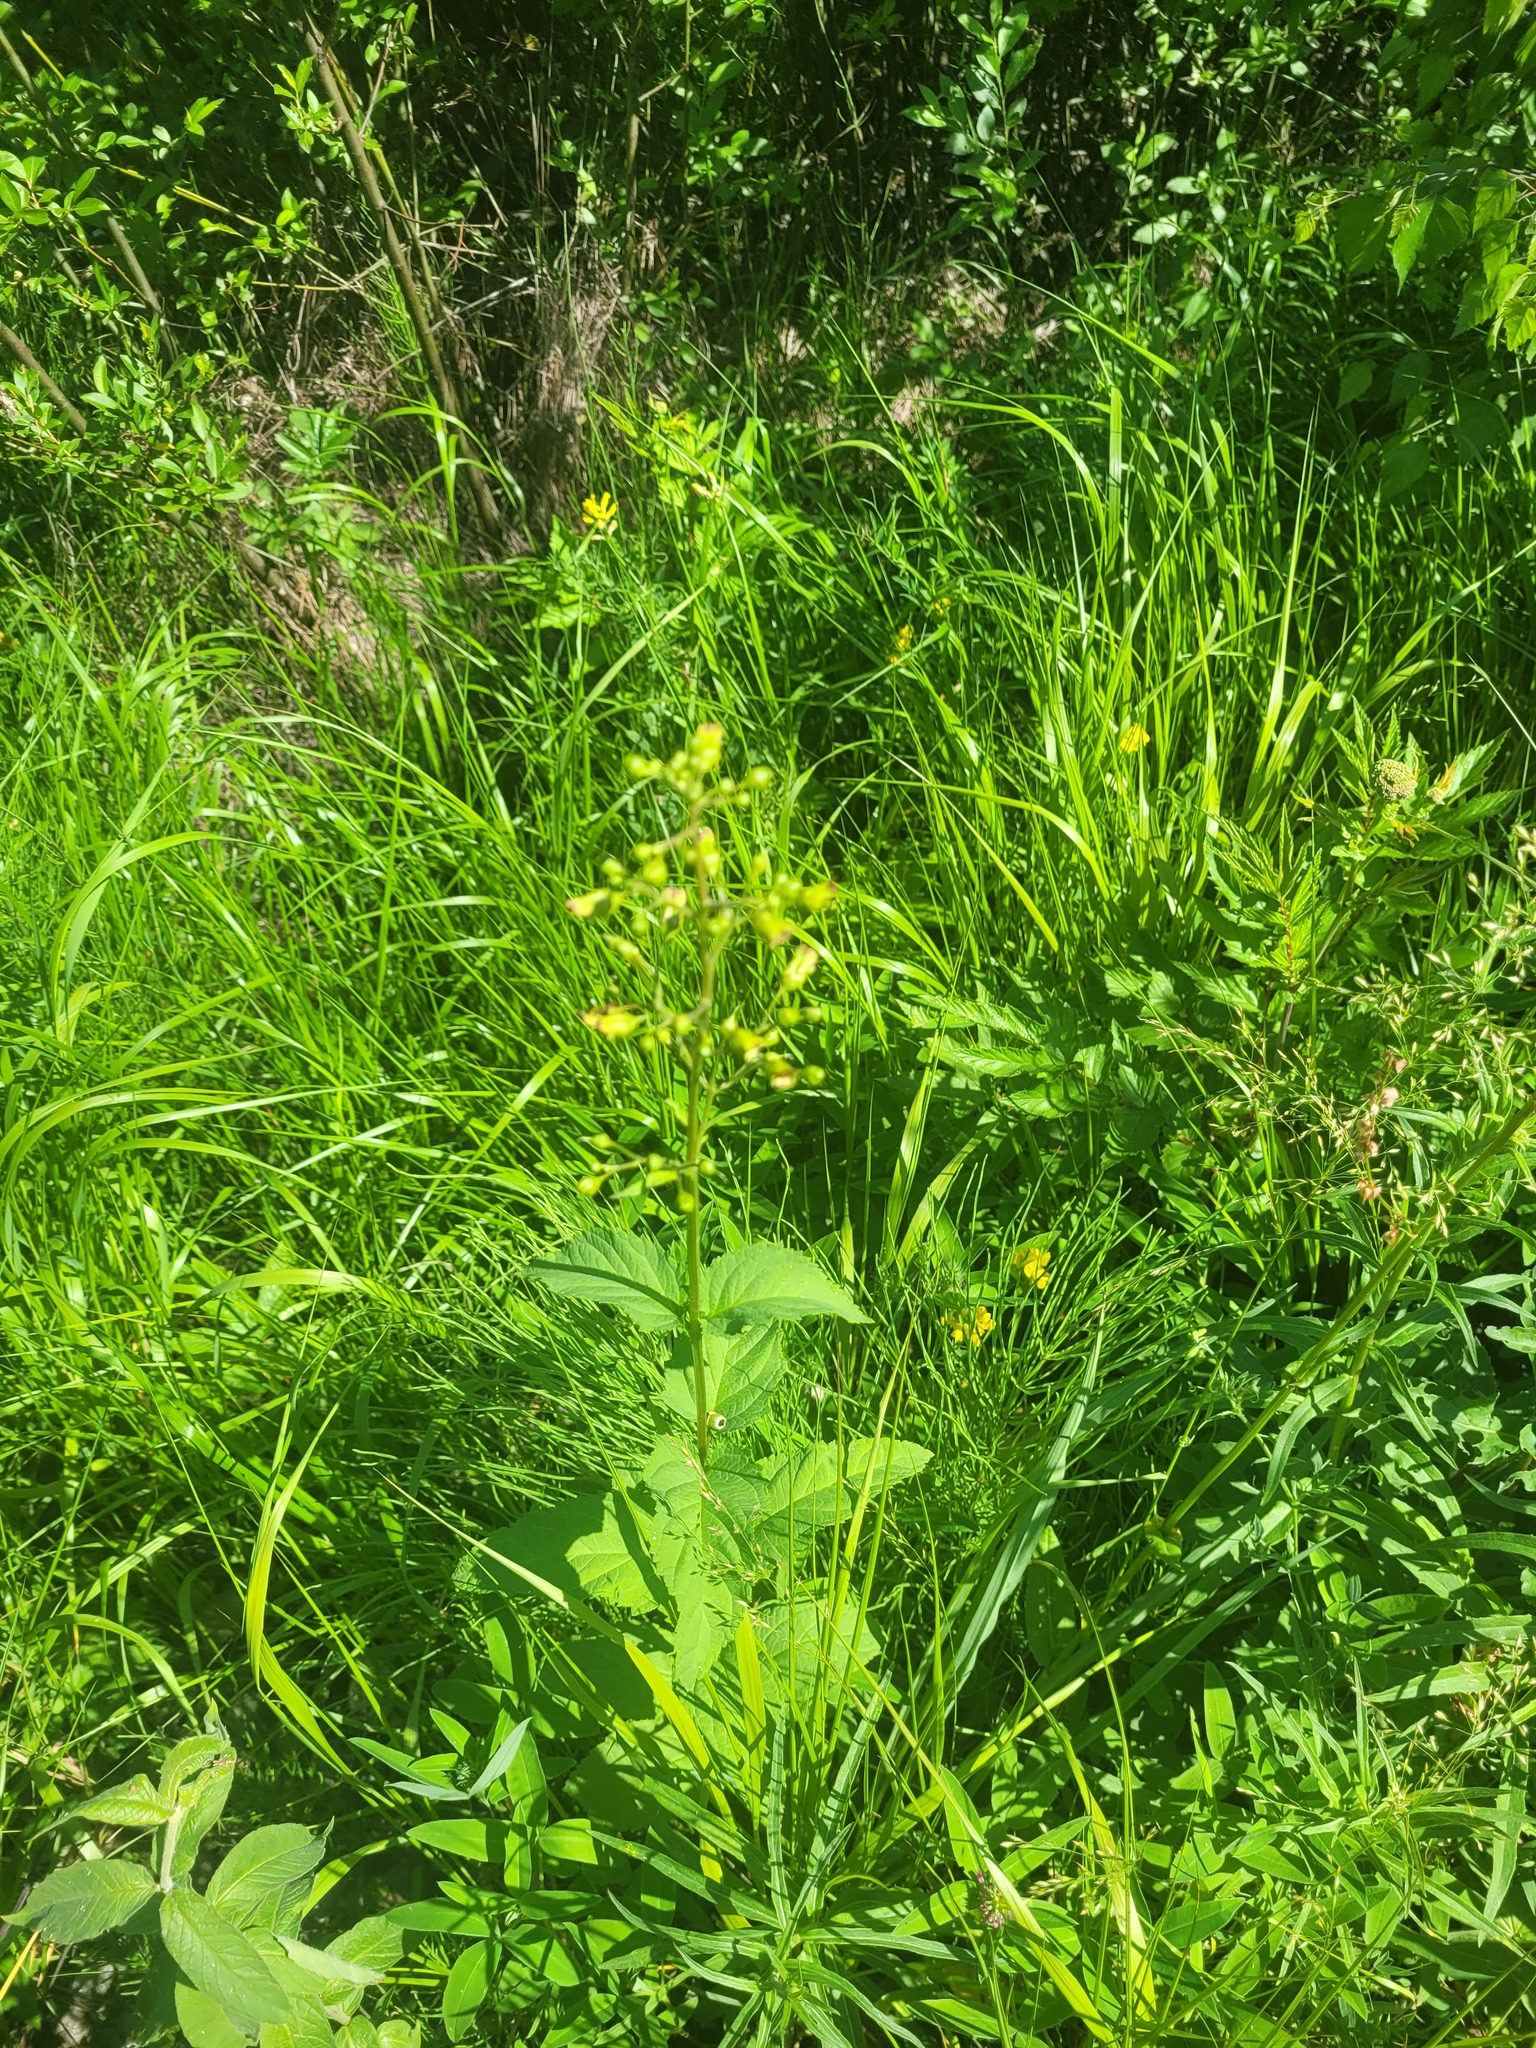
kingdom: Plantae
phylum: Tracheophyta
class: Magnoliopsida
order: Lamiales
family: Scrophulariaceae
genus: Scrophularia
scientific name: Scrophularia nodosa
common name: Common figwort
